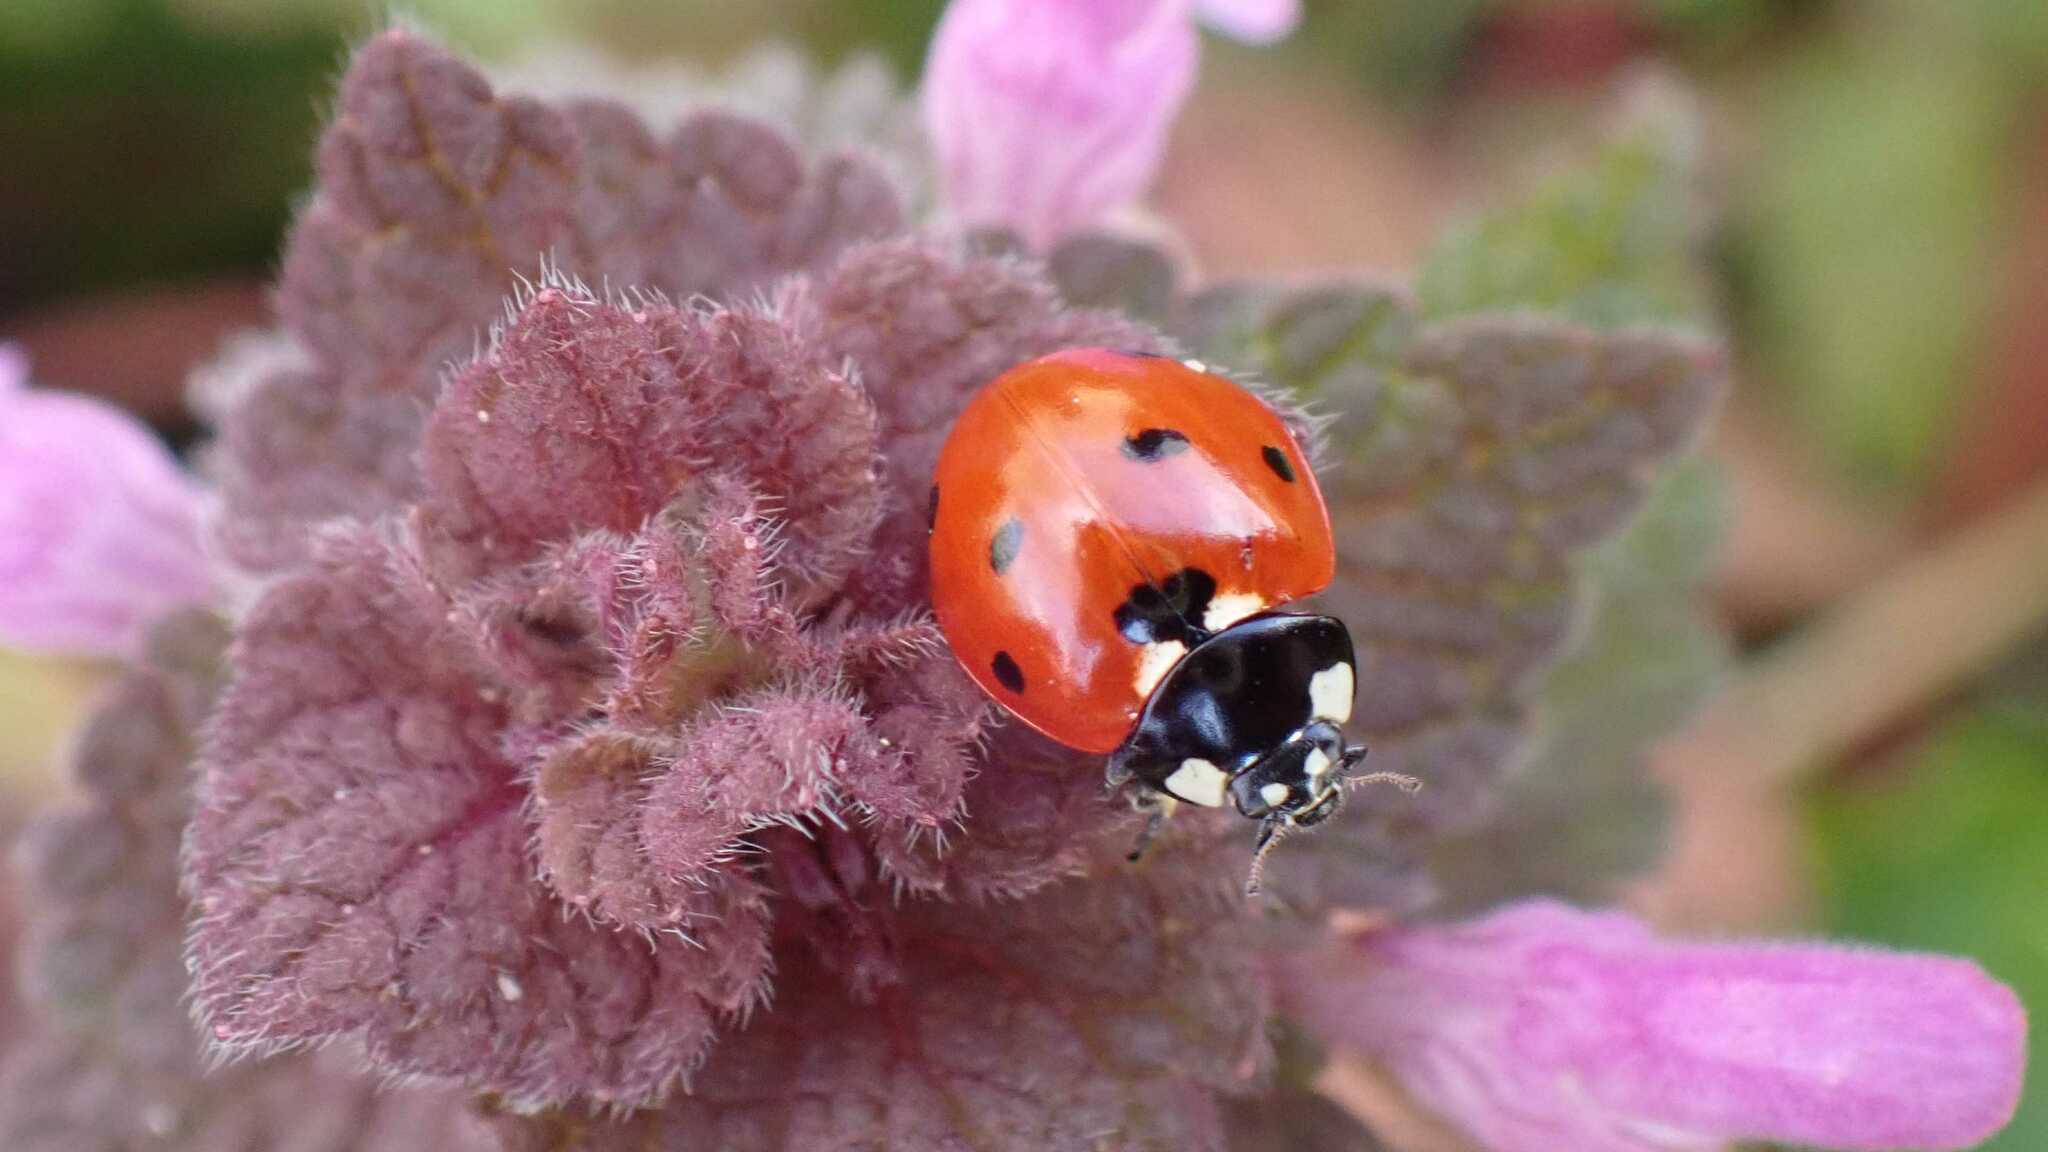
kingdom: Animalia
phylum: Arthropoda
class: Insecta
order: Coleoptera
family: Coccinellidae
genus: Coccinella
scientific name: Coccinella septempunctata
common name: Sevenspotted lady beetle
